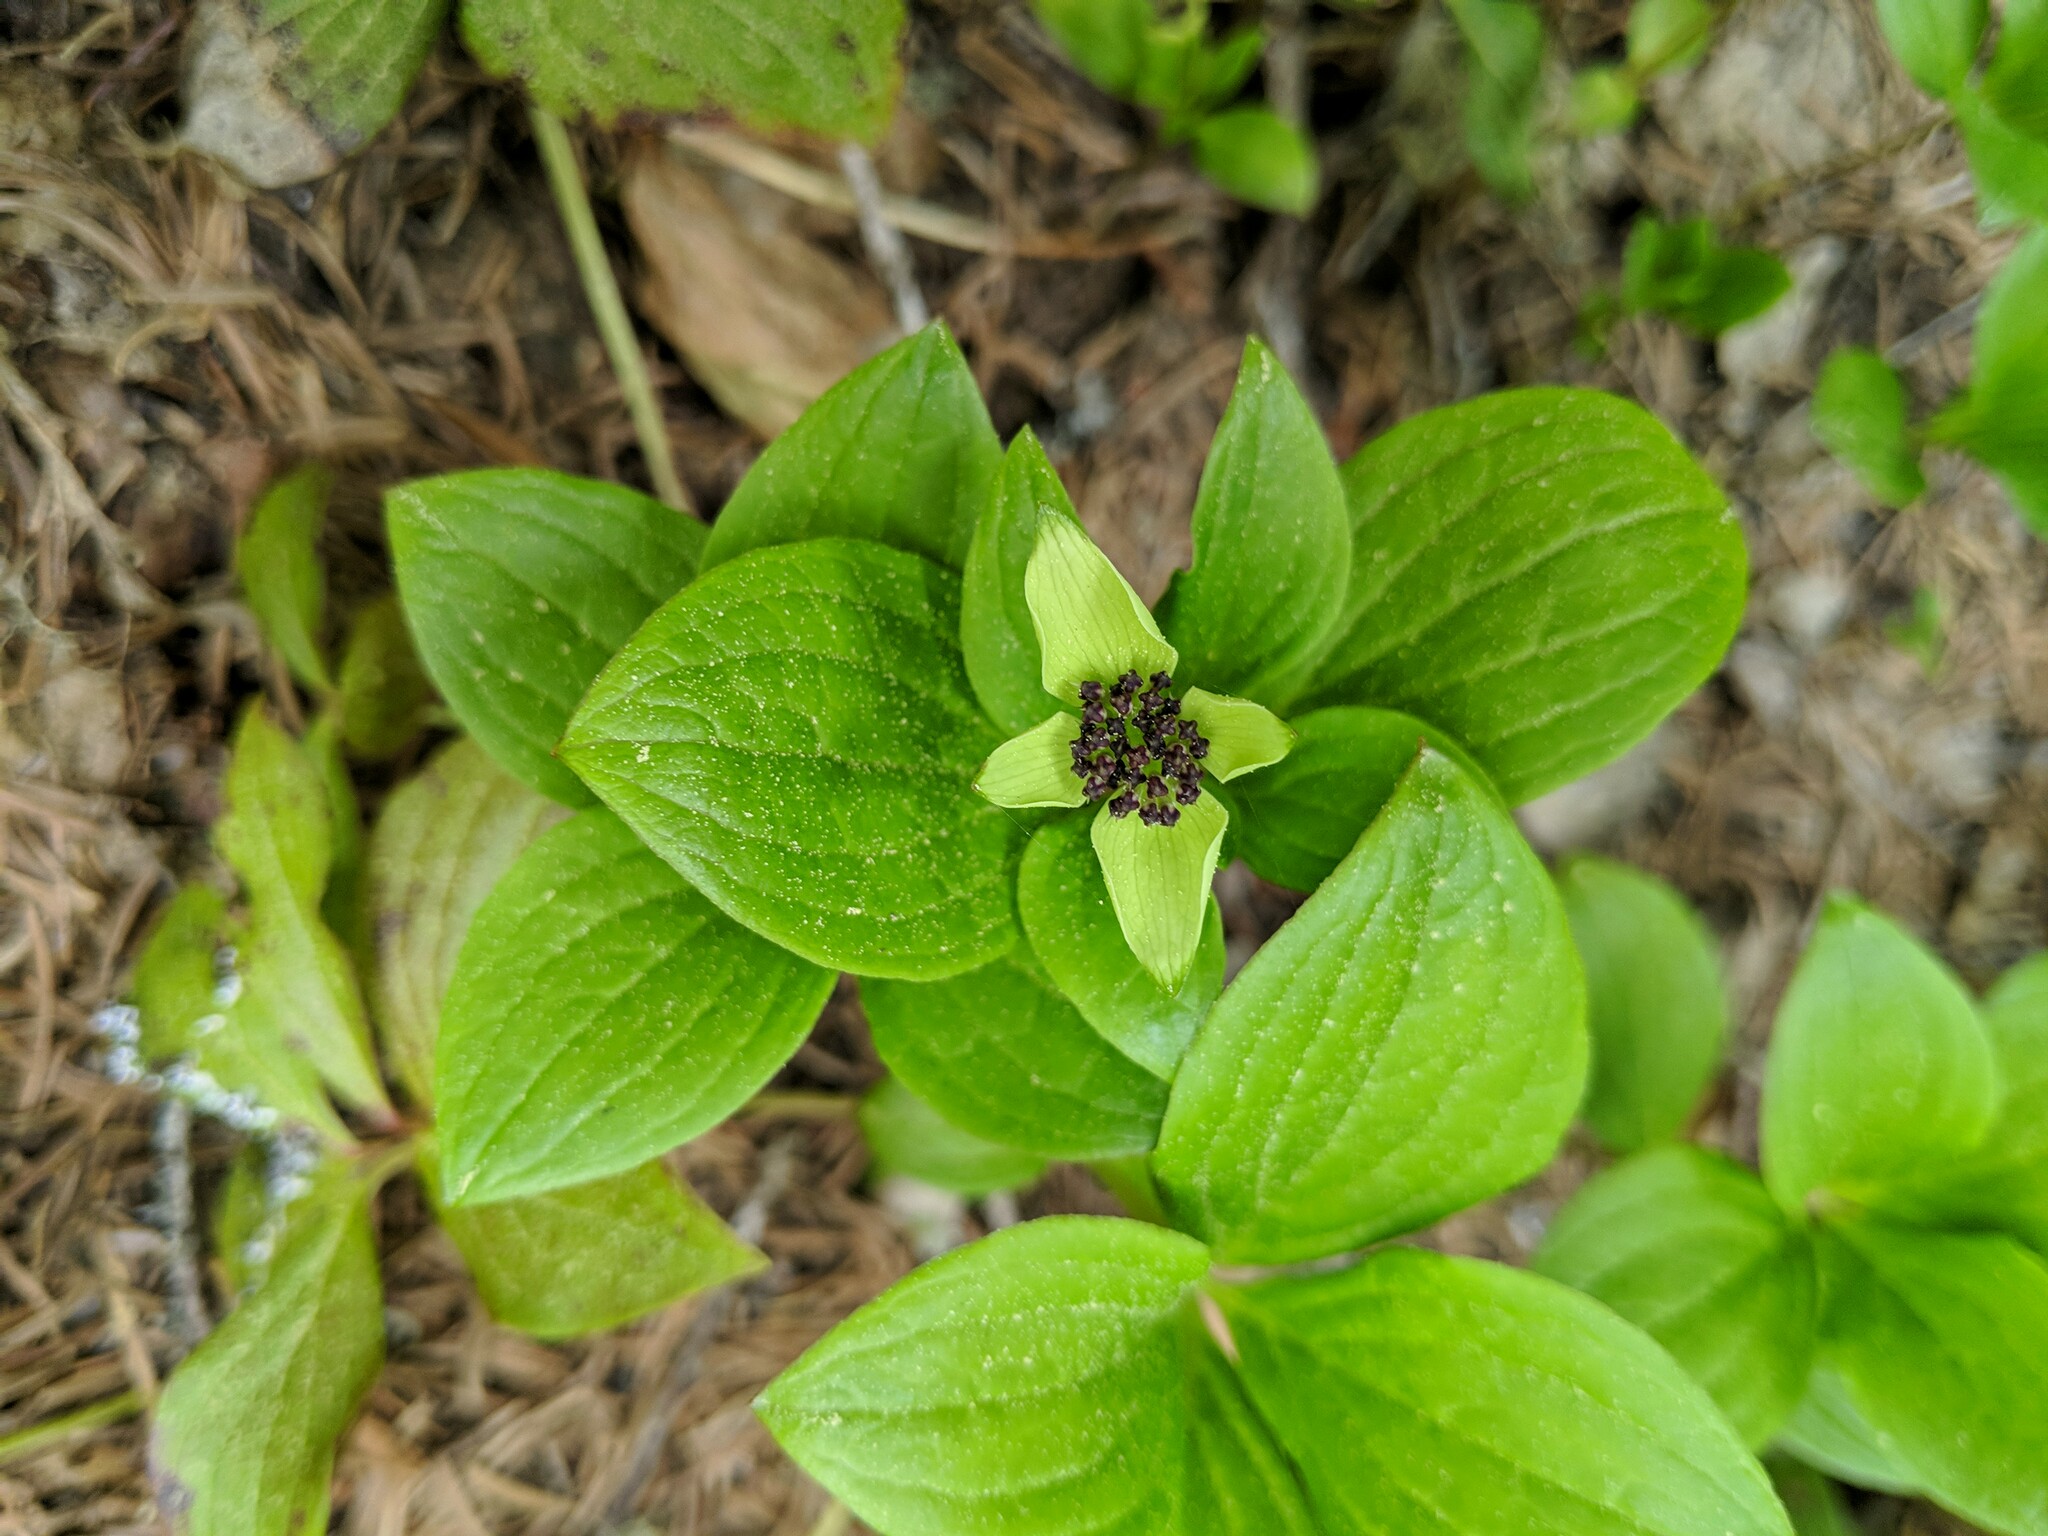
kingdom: Plantae
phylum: Tracheophyta
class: Magnoliopsida
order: Cornales
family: Cornaceae
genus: Cornus
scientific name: Cornus unalaschkensis
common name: Alaska bunchberry
